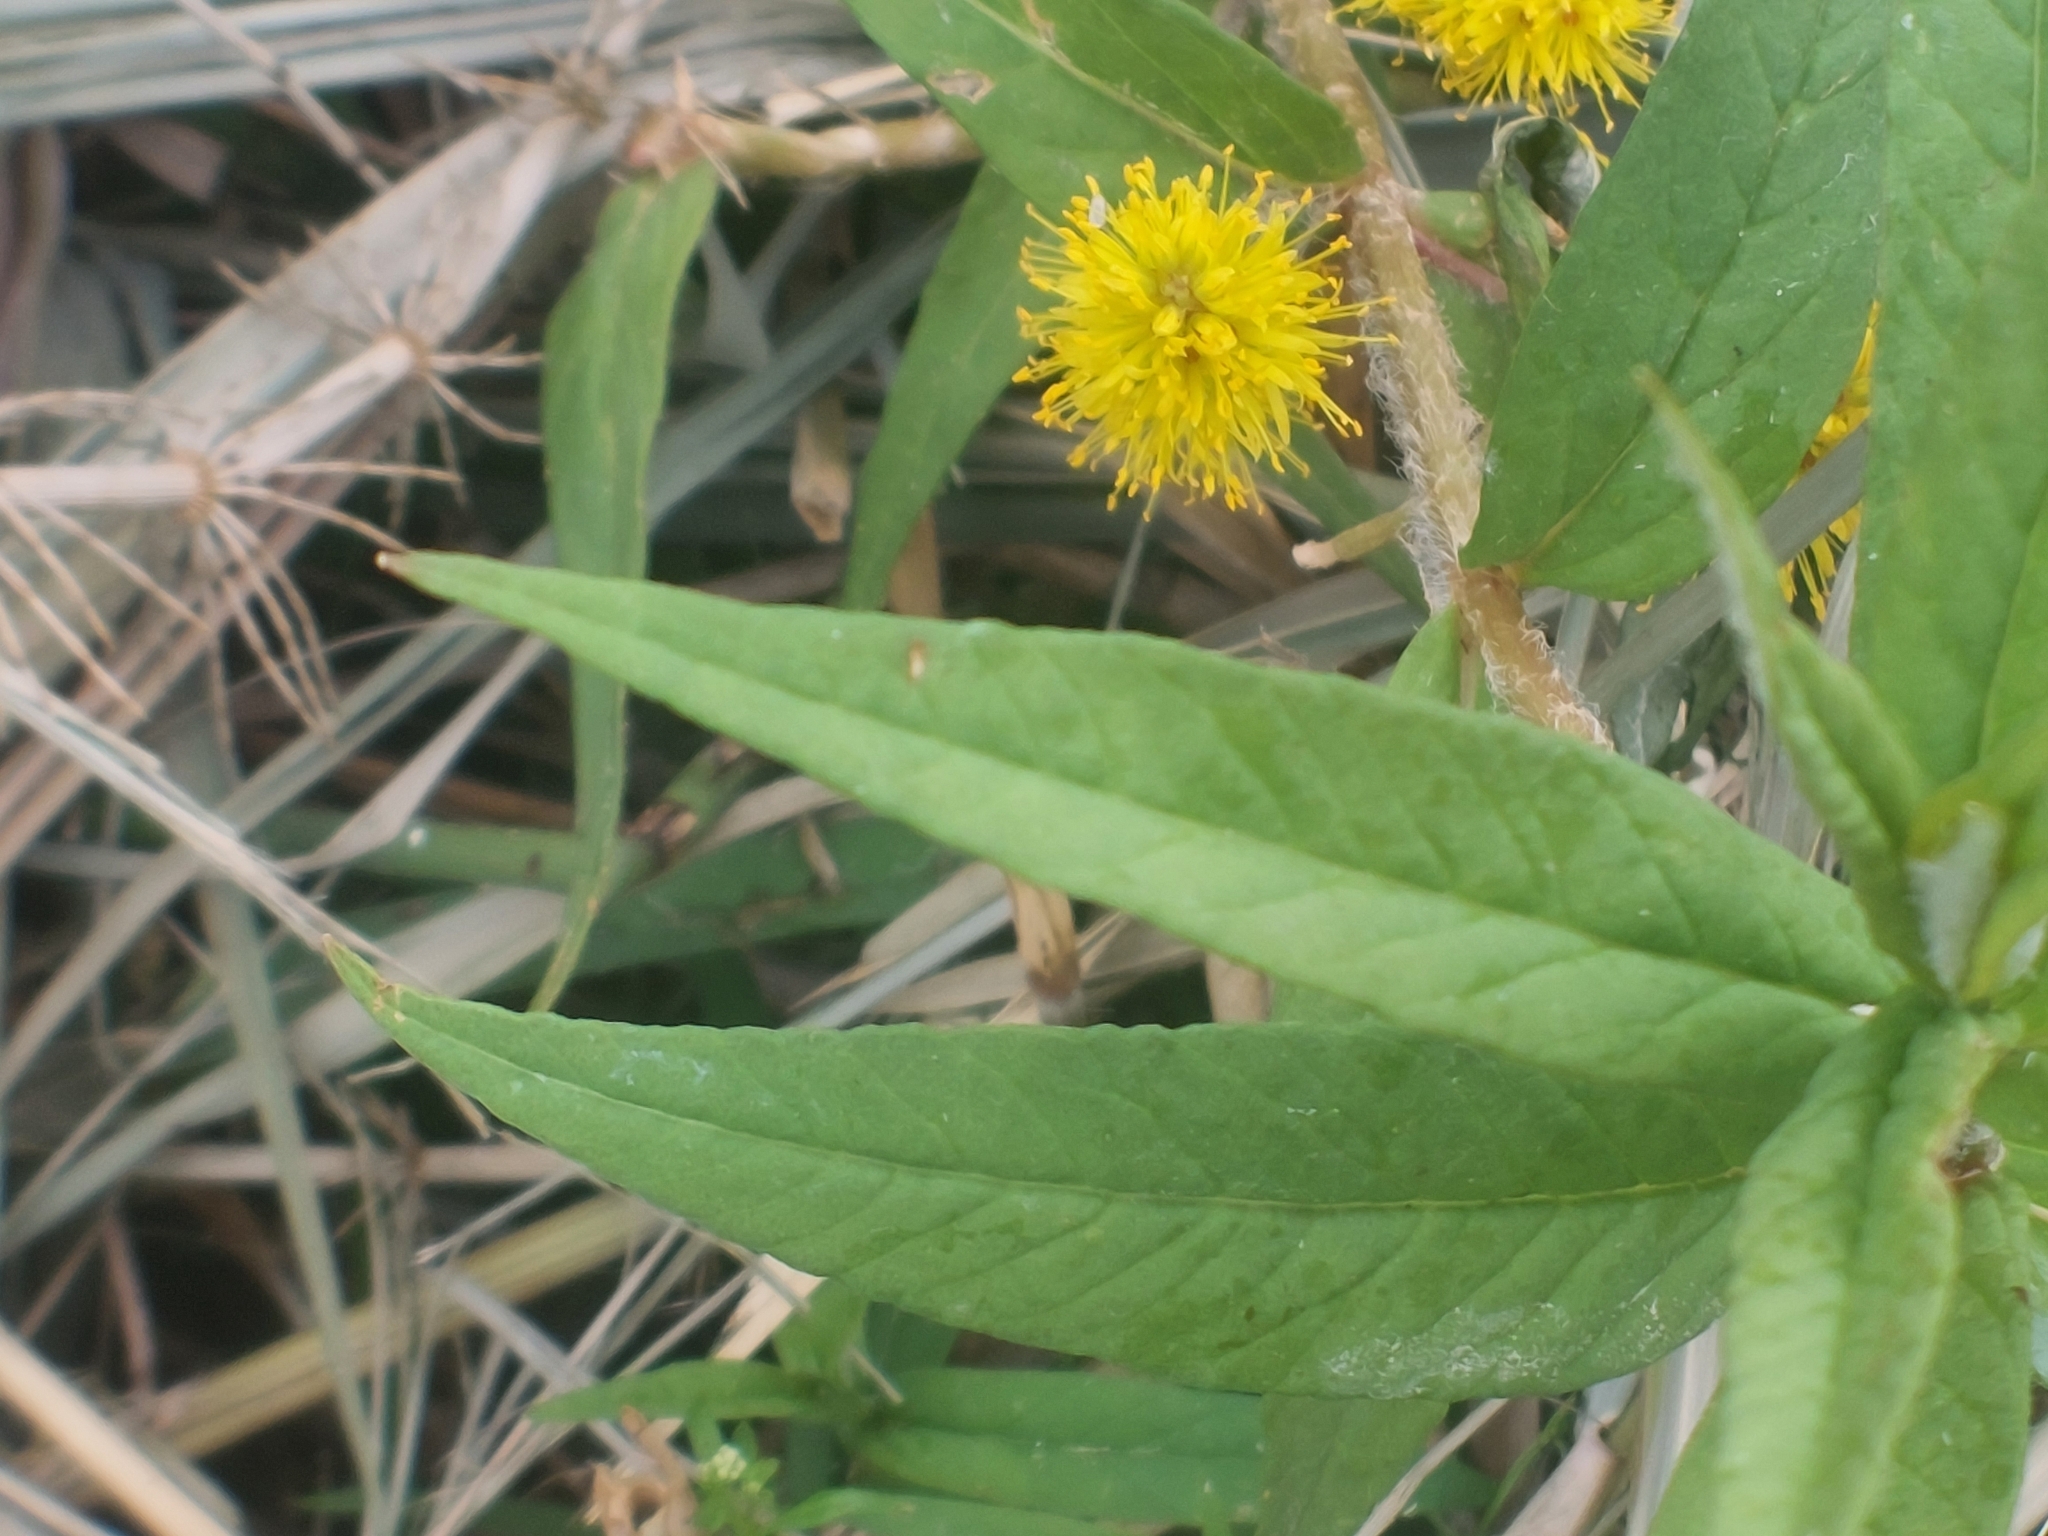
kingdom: Plantae
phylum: Tracheophyta
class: Magnoliopsida
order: Ericales
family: Primulaceae
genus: Lysimachia
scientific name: Lysimachia thyrsiflora
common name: Tufted loosestrife
